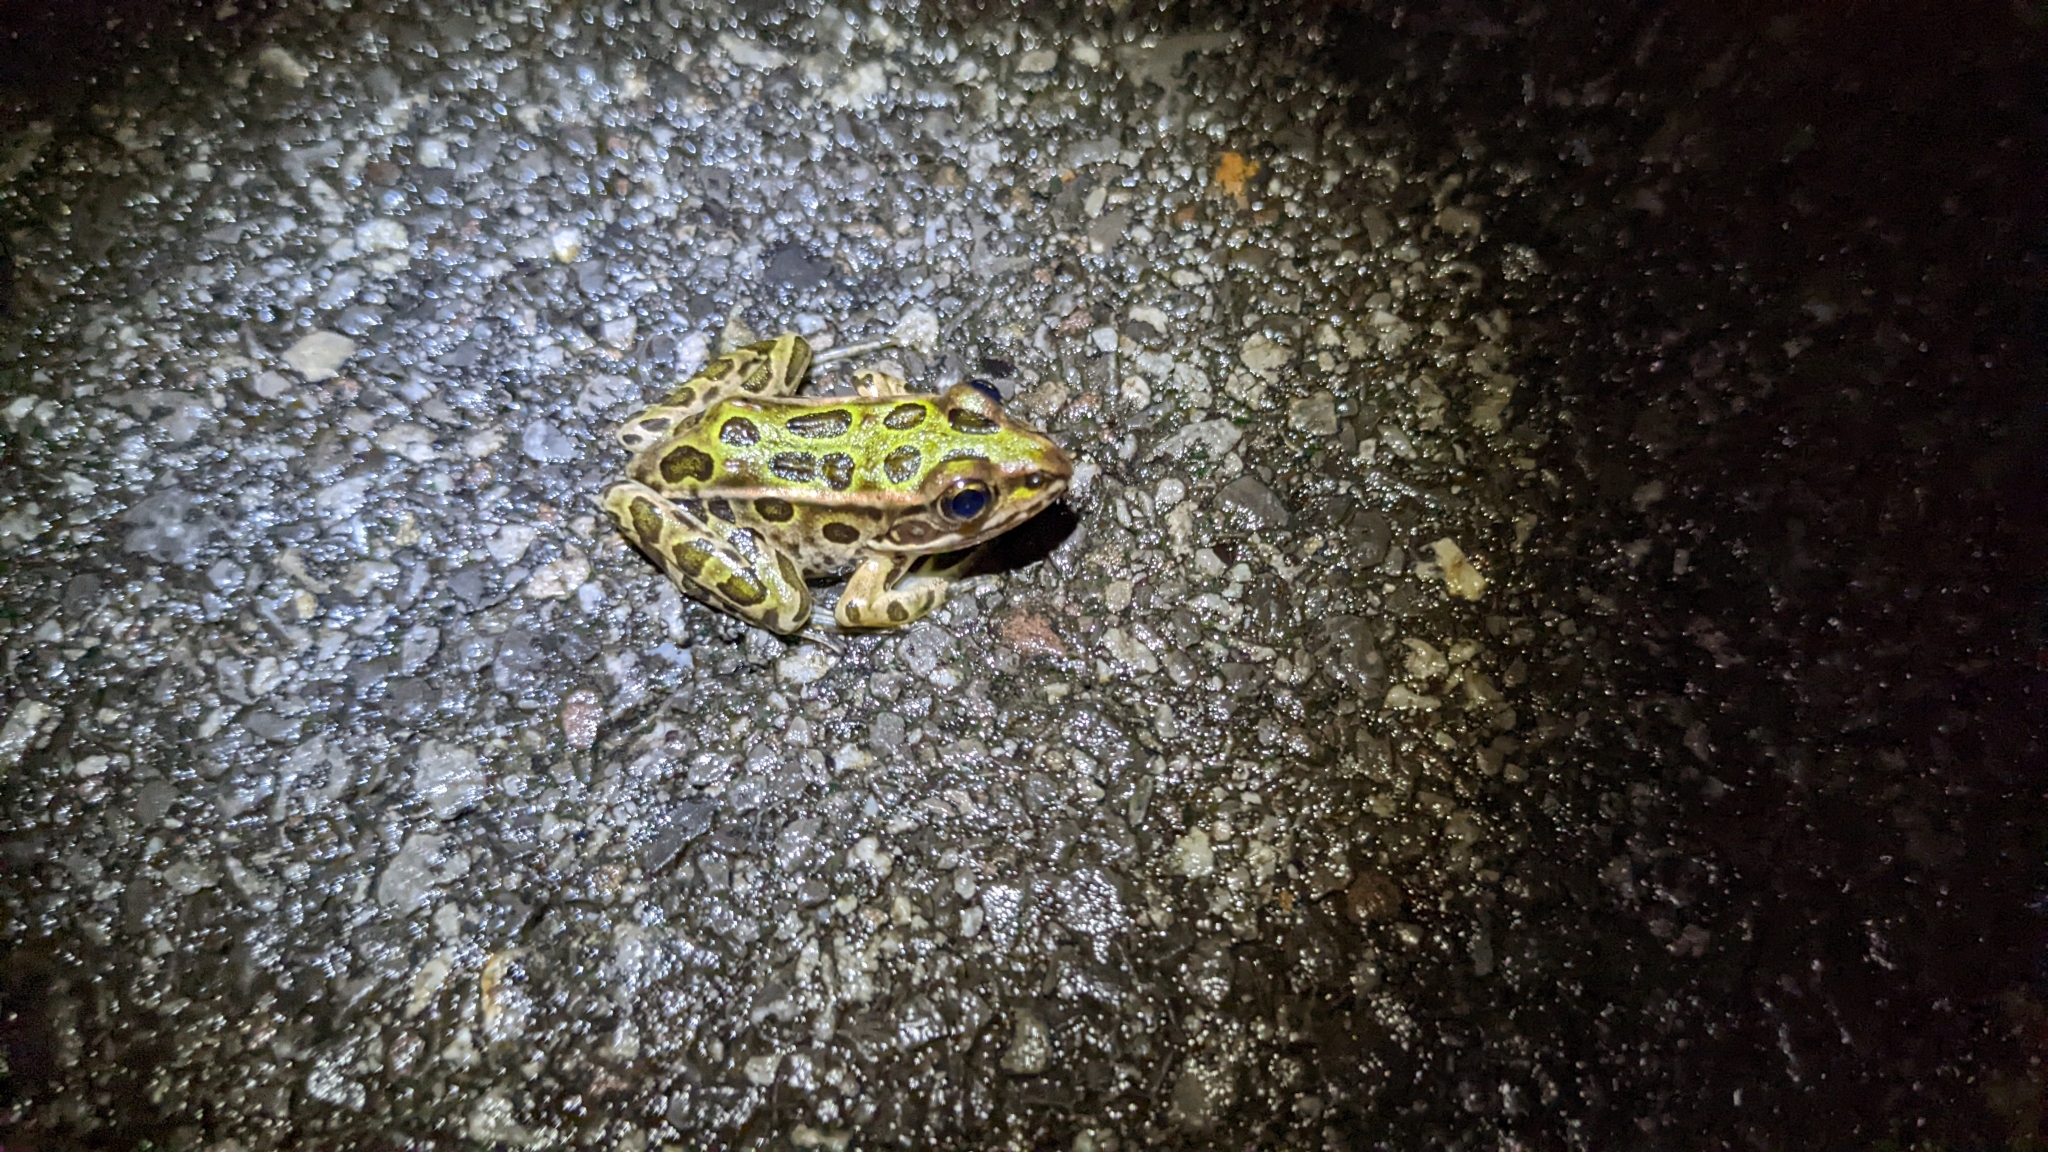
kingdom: Animalia
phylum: Chordata
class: Amphibia
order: Anura
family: Ranidae
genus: Lithobates
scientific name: Lithobates pipiens
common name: Northern leopard frog
